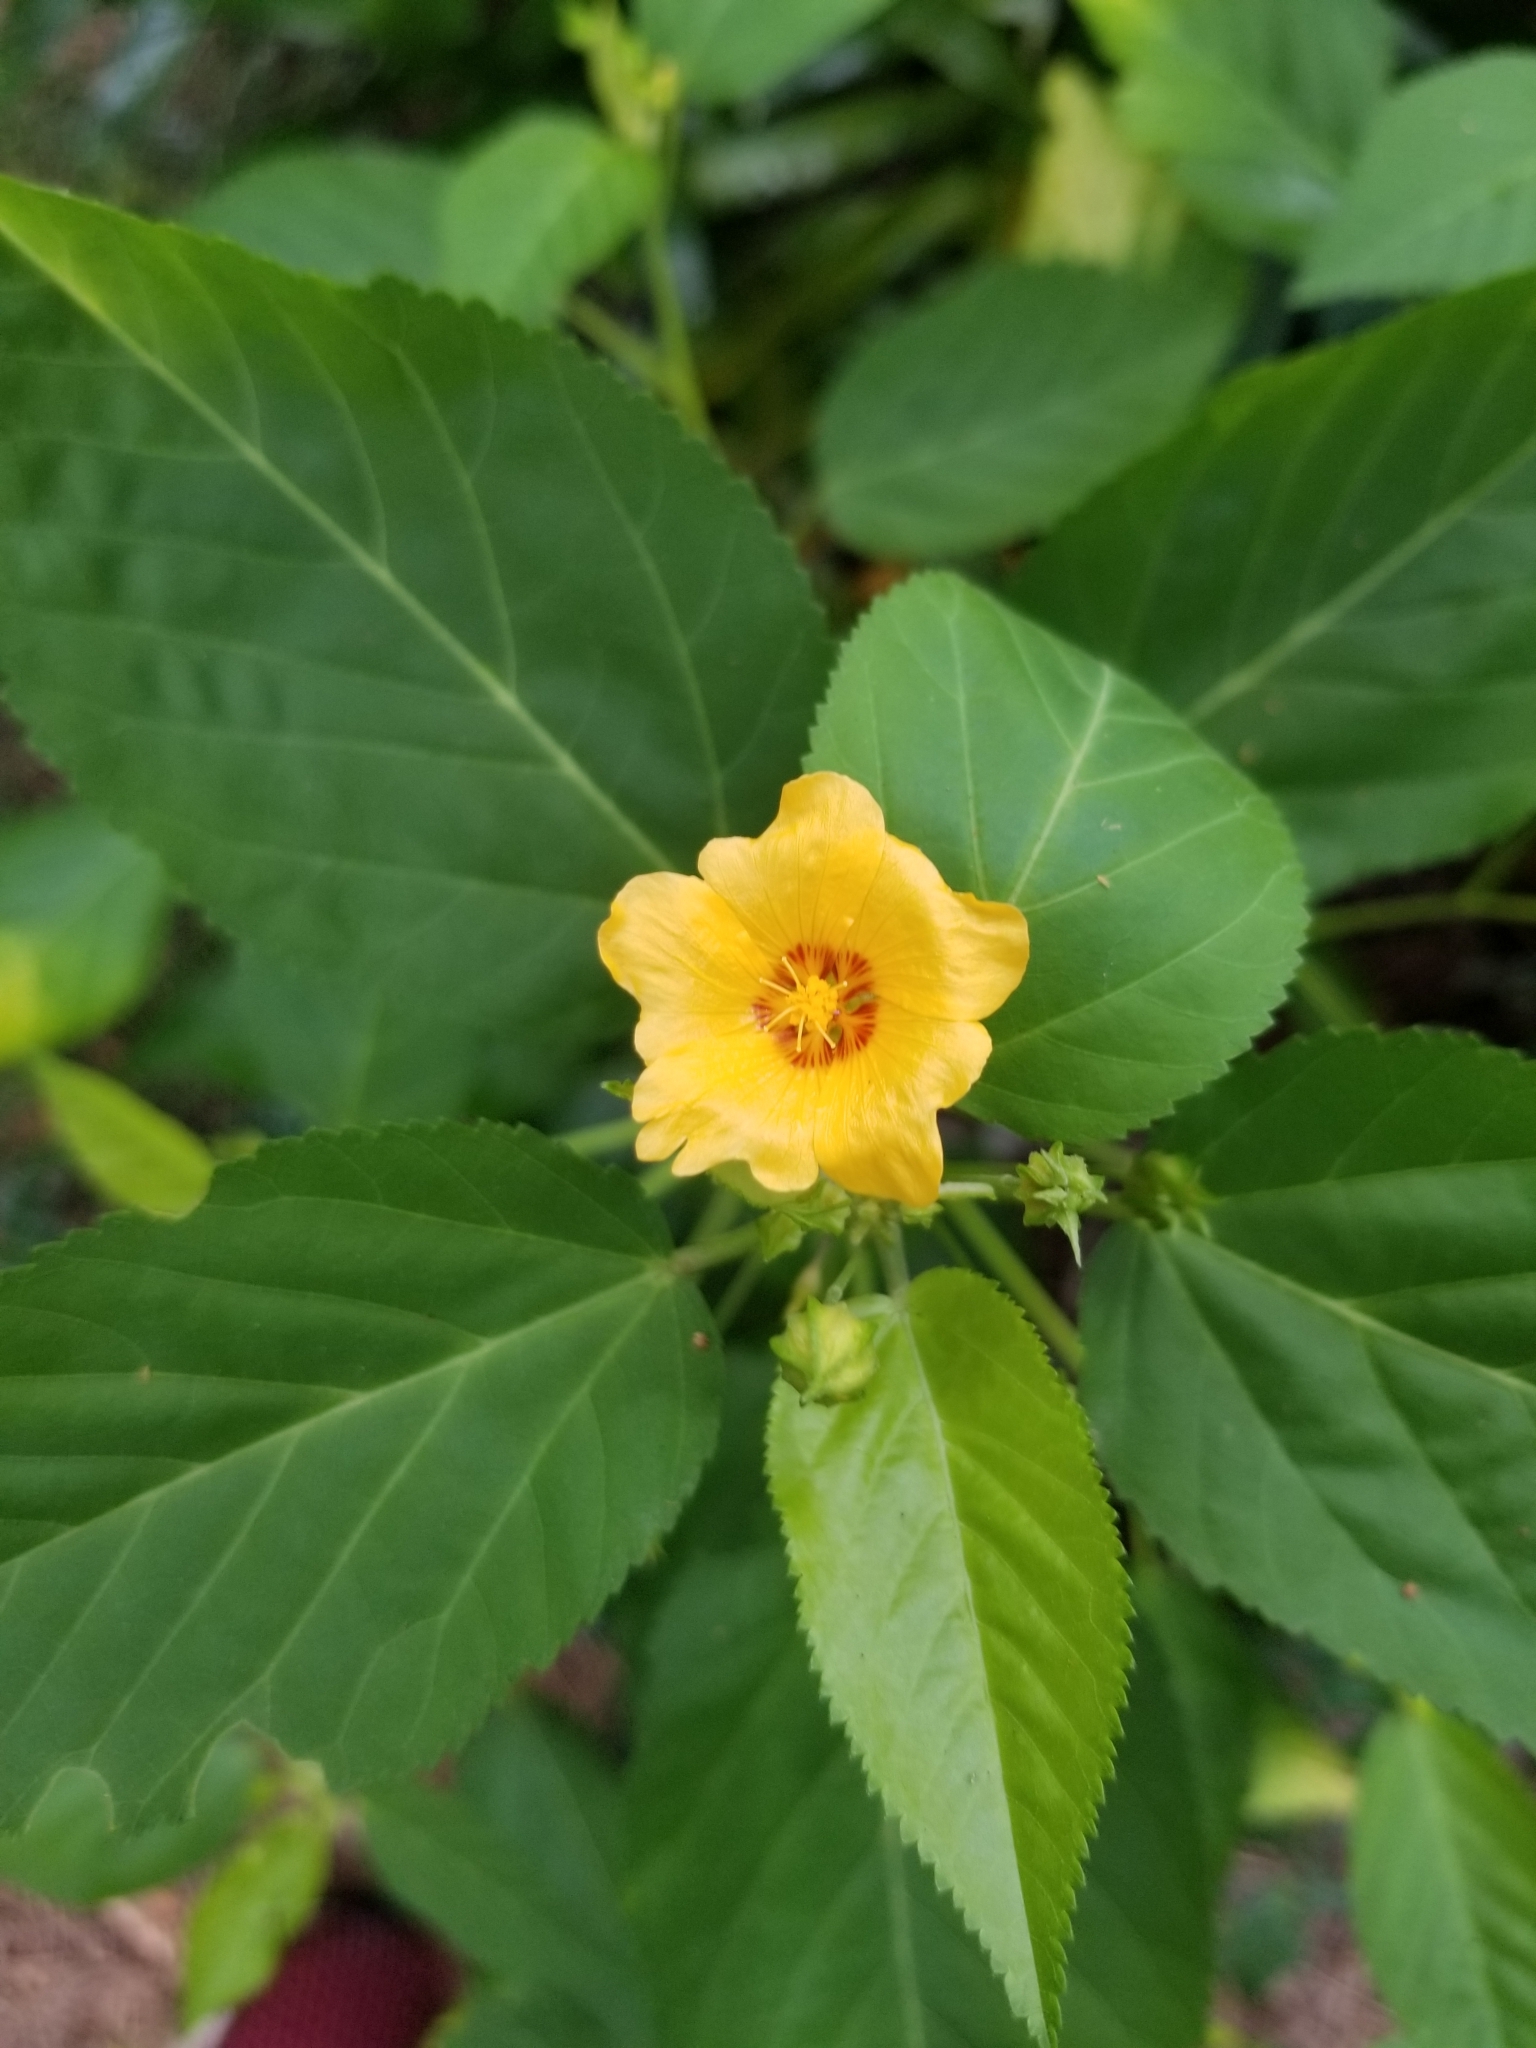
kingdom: Plantae
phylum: Tracheophyta
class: Magnoliopsida
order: Malvales
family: Malvaceae
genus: Sida
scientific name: Sida fallax
